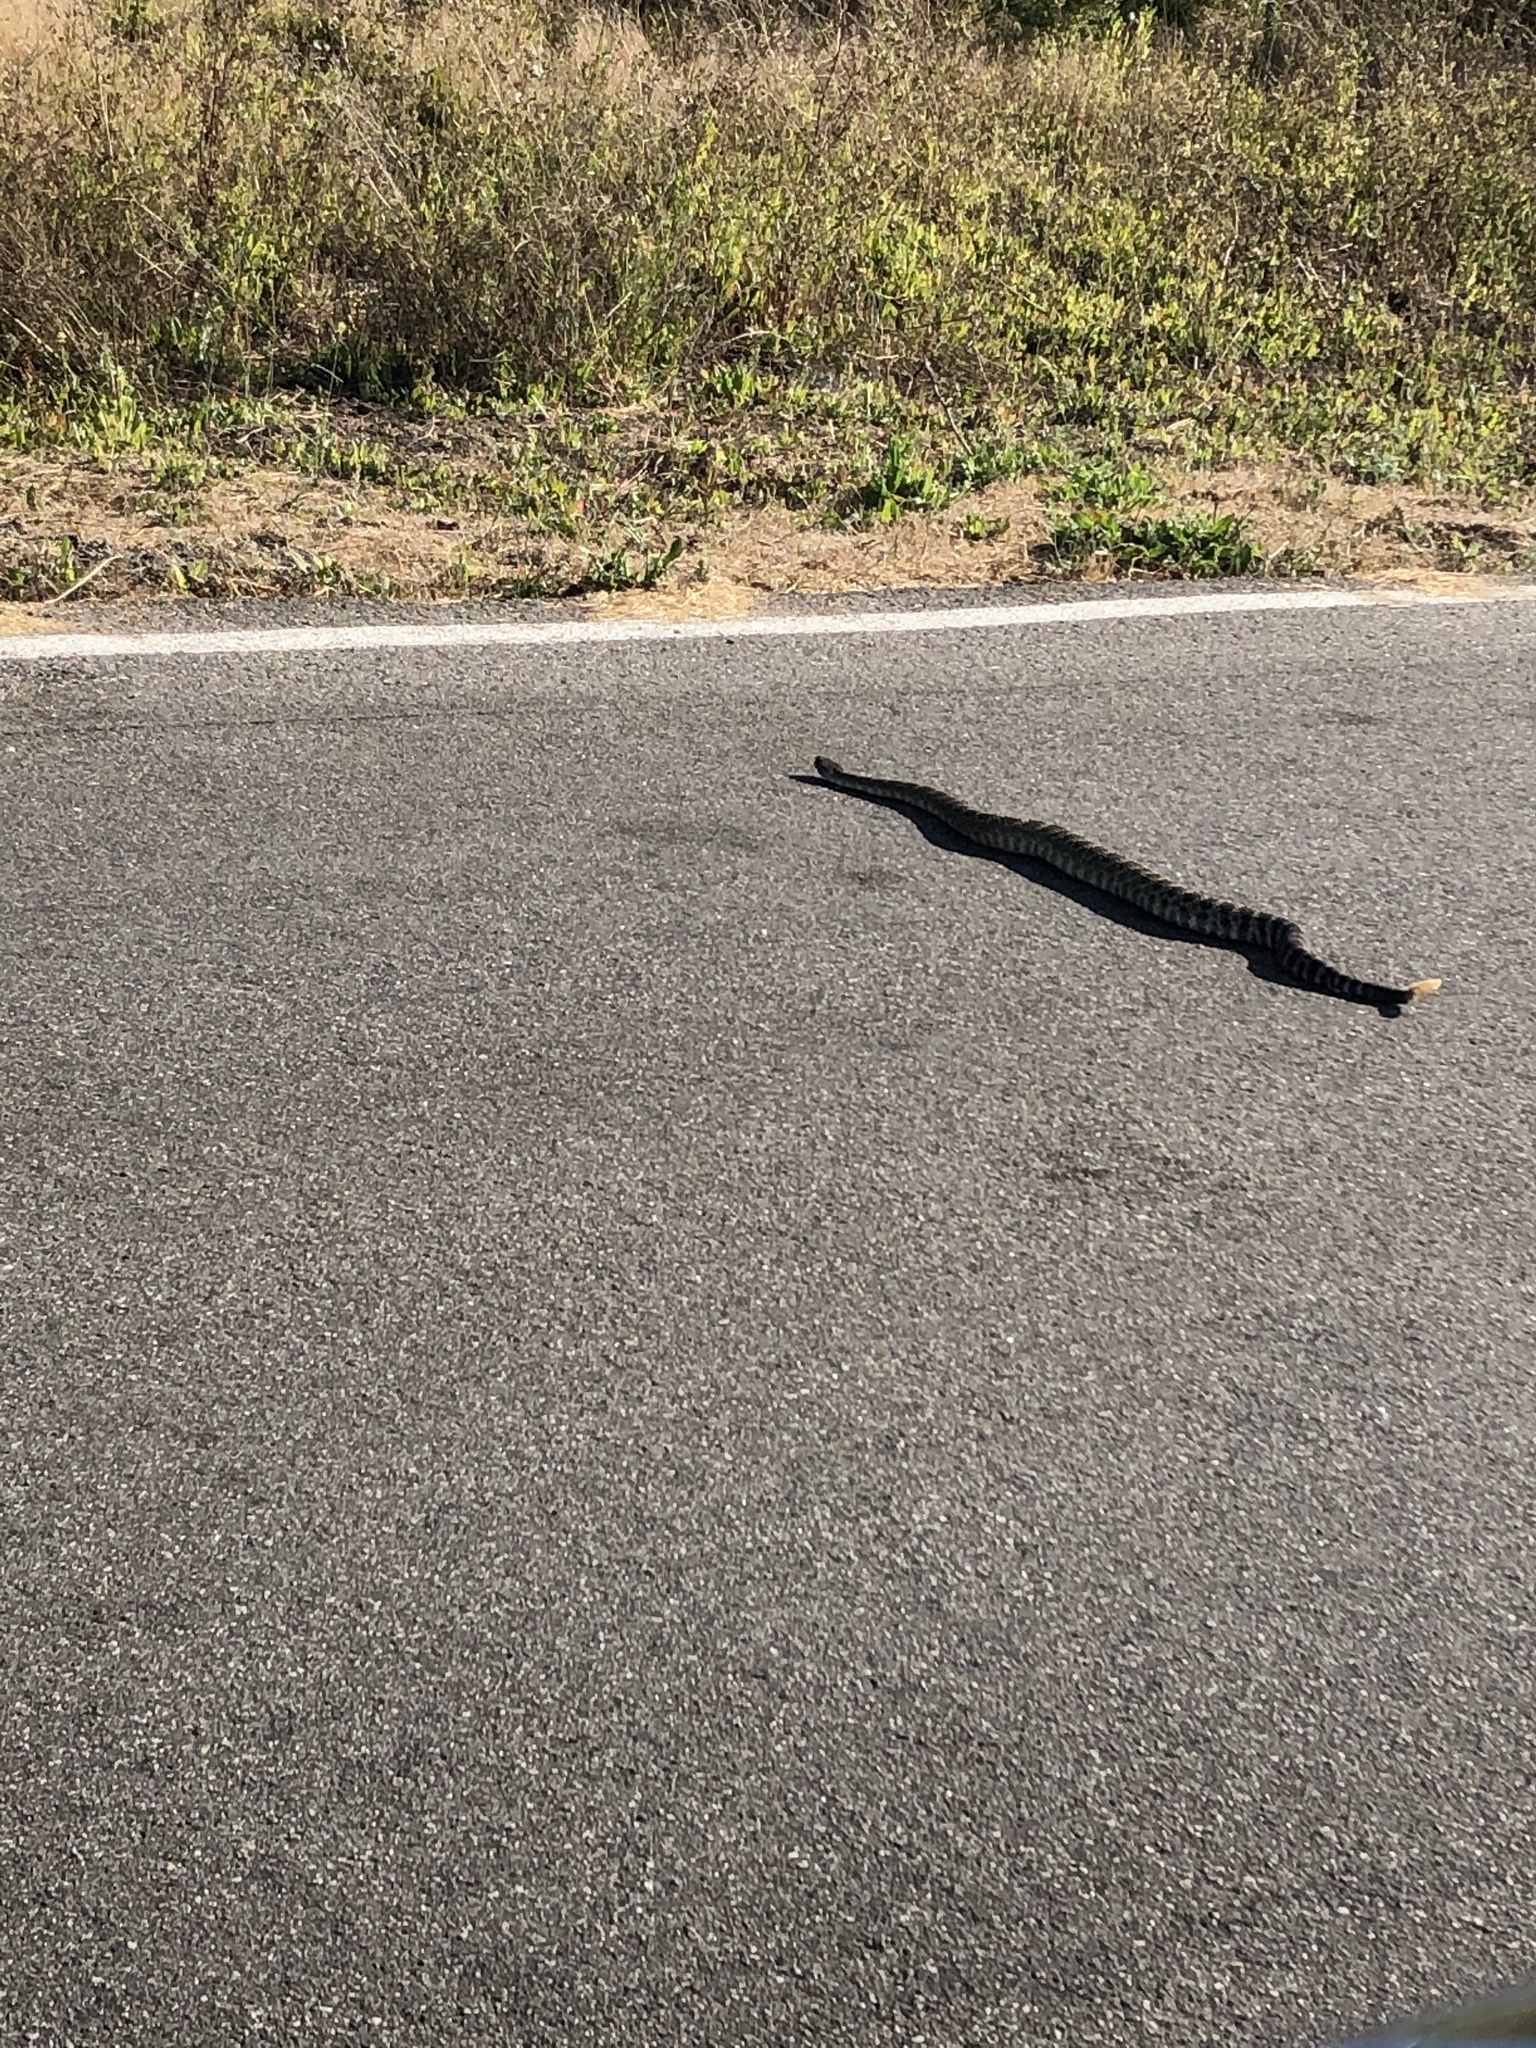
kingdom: Animalia
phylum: Chordata
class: Squamata
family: Viperidae
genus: Crotalus
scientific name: Crotalus oreganus
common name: Abyssus
